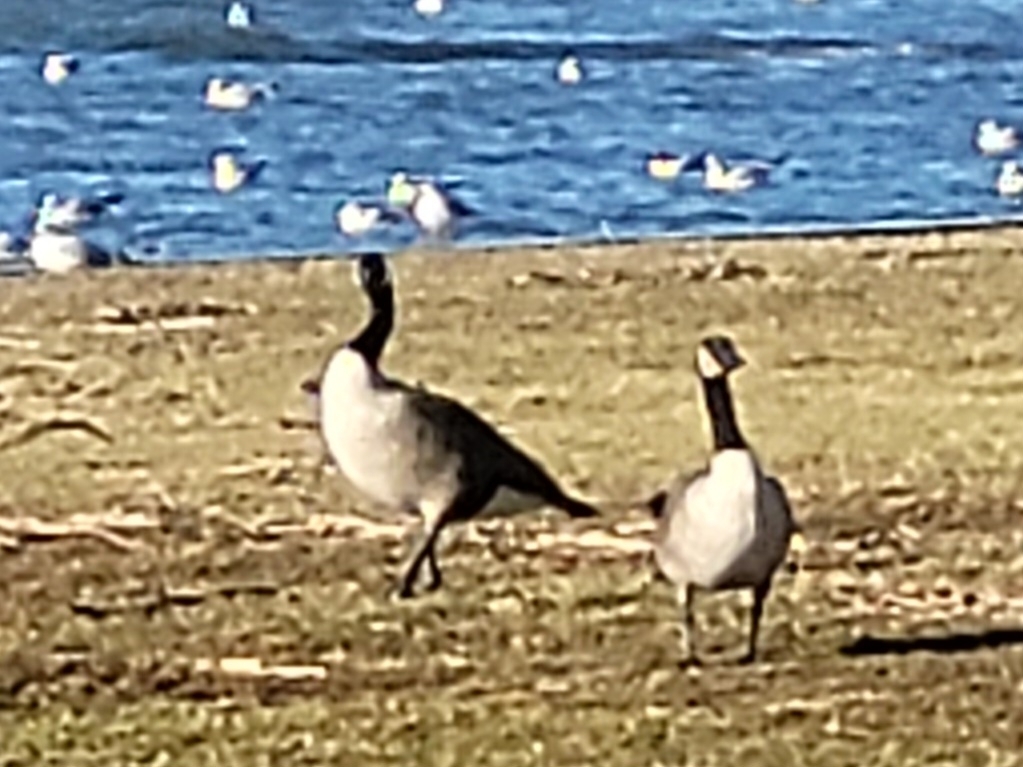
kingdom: Animalia
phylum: Chordata
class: Aves
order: Anseriformes
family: Anatidae
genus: Branta
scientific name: Branta canadensis
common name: Canada goose
